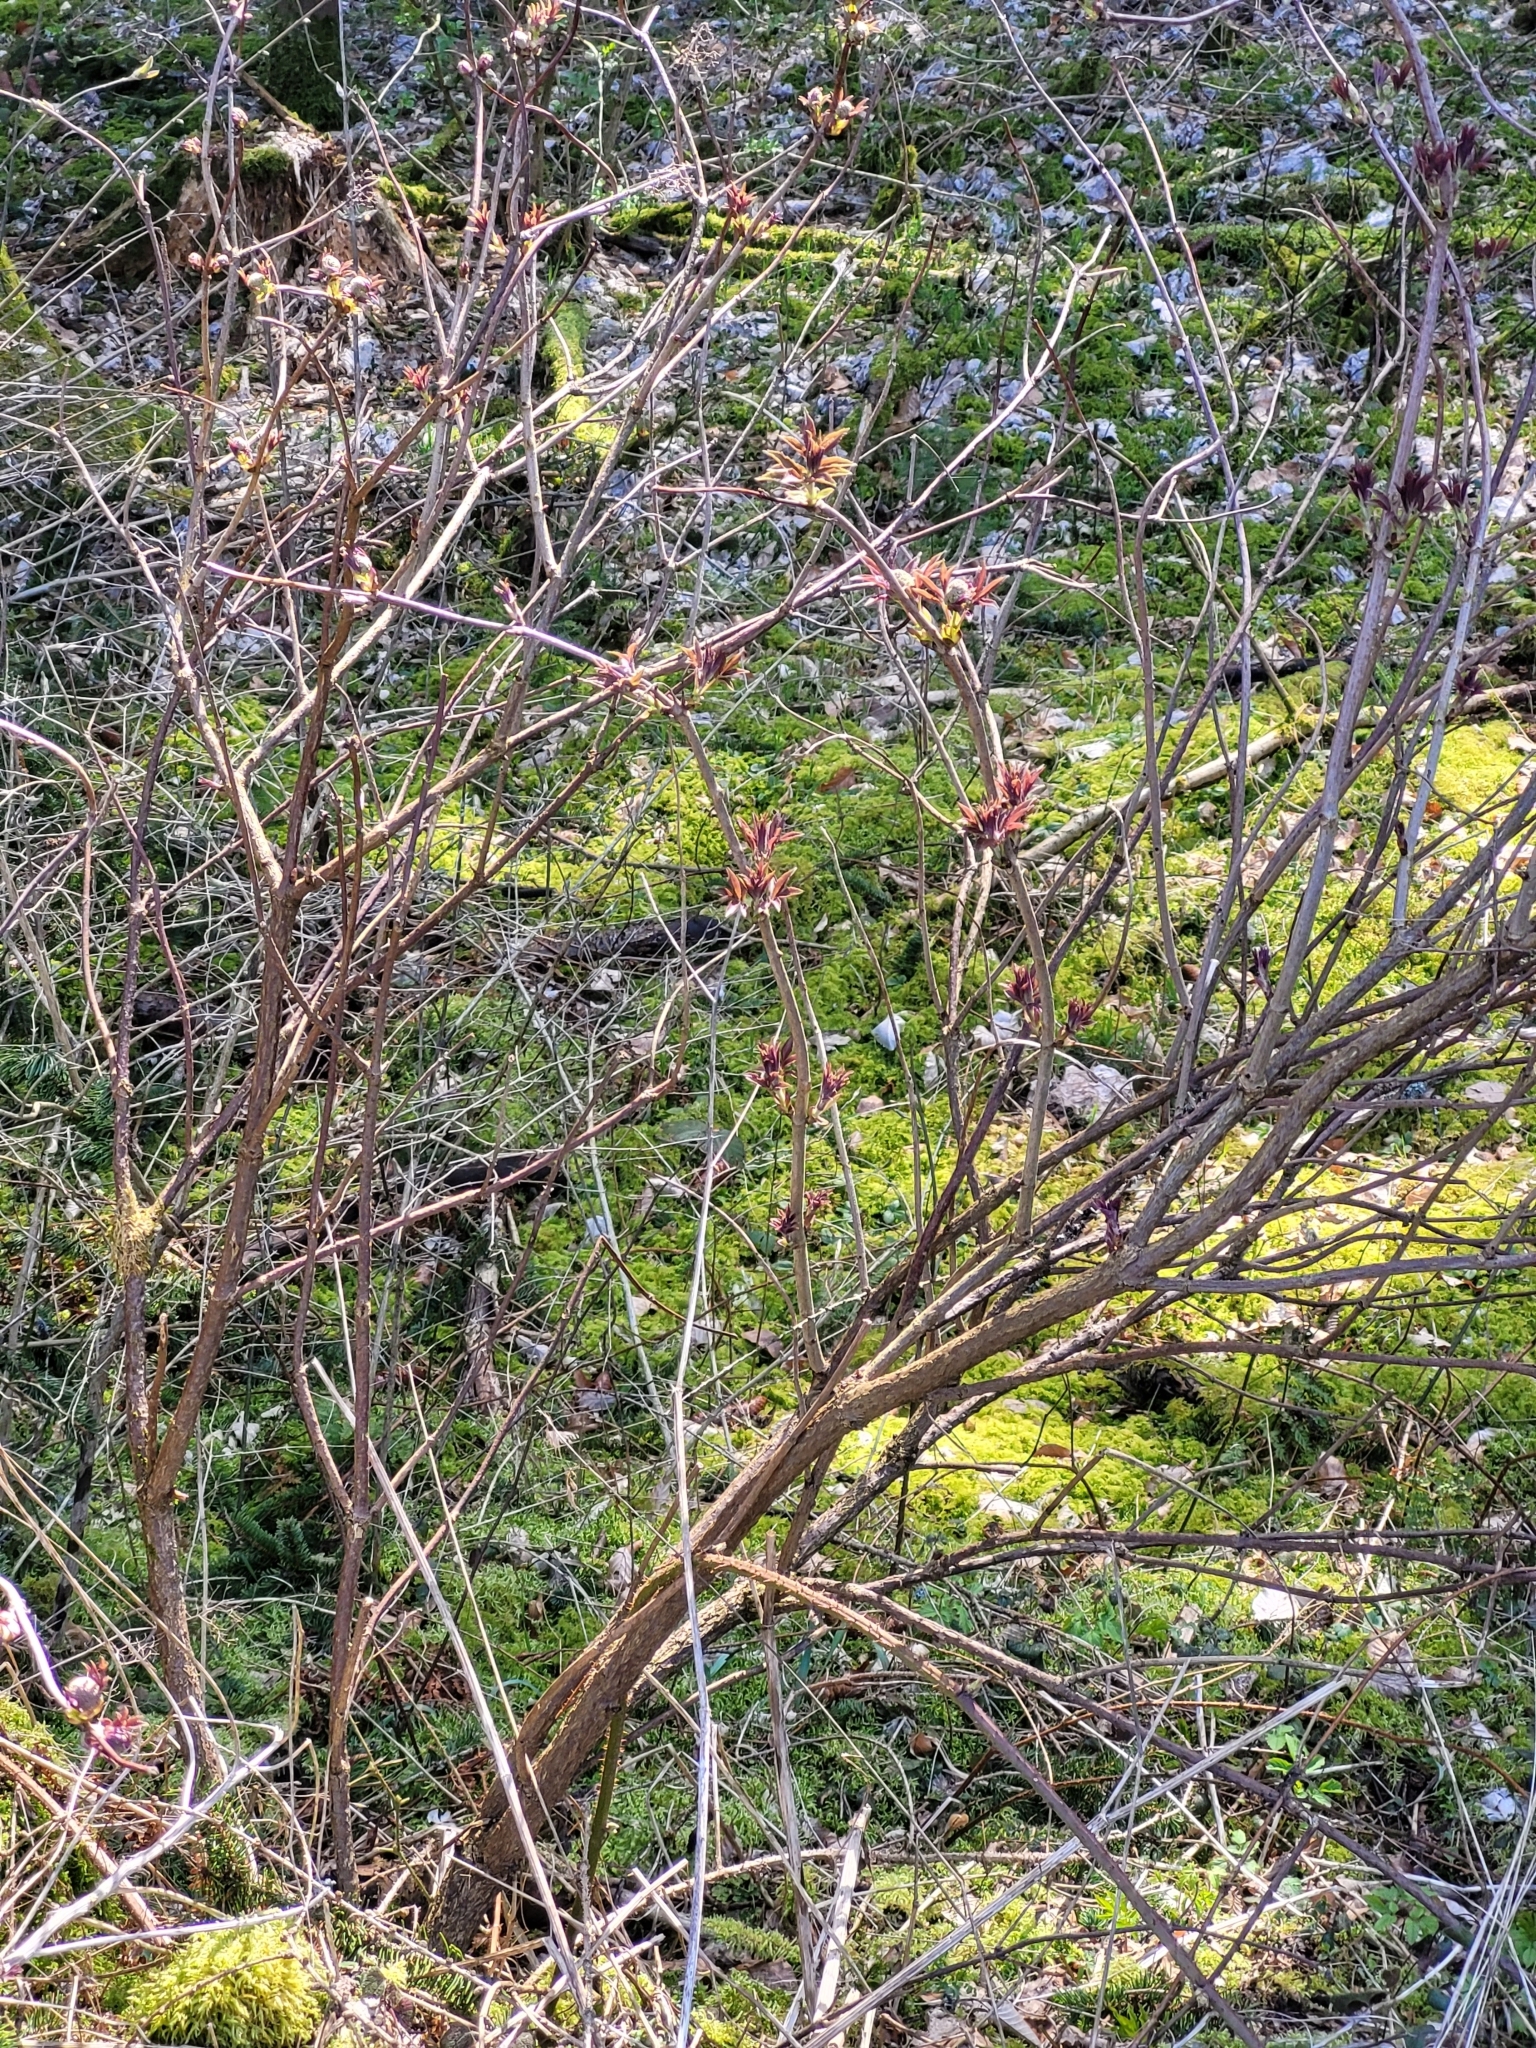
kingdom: Plantae
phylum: Tracheophyta
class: Magnoliopsida
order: Dipsacales
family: Viburnaceae
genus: Sambucus
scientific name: Sambucus racemosa
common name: Red-berried elder
